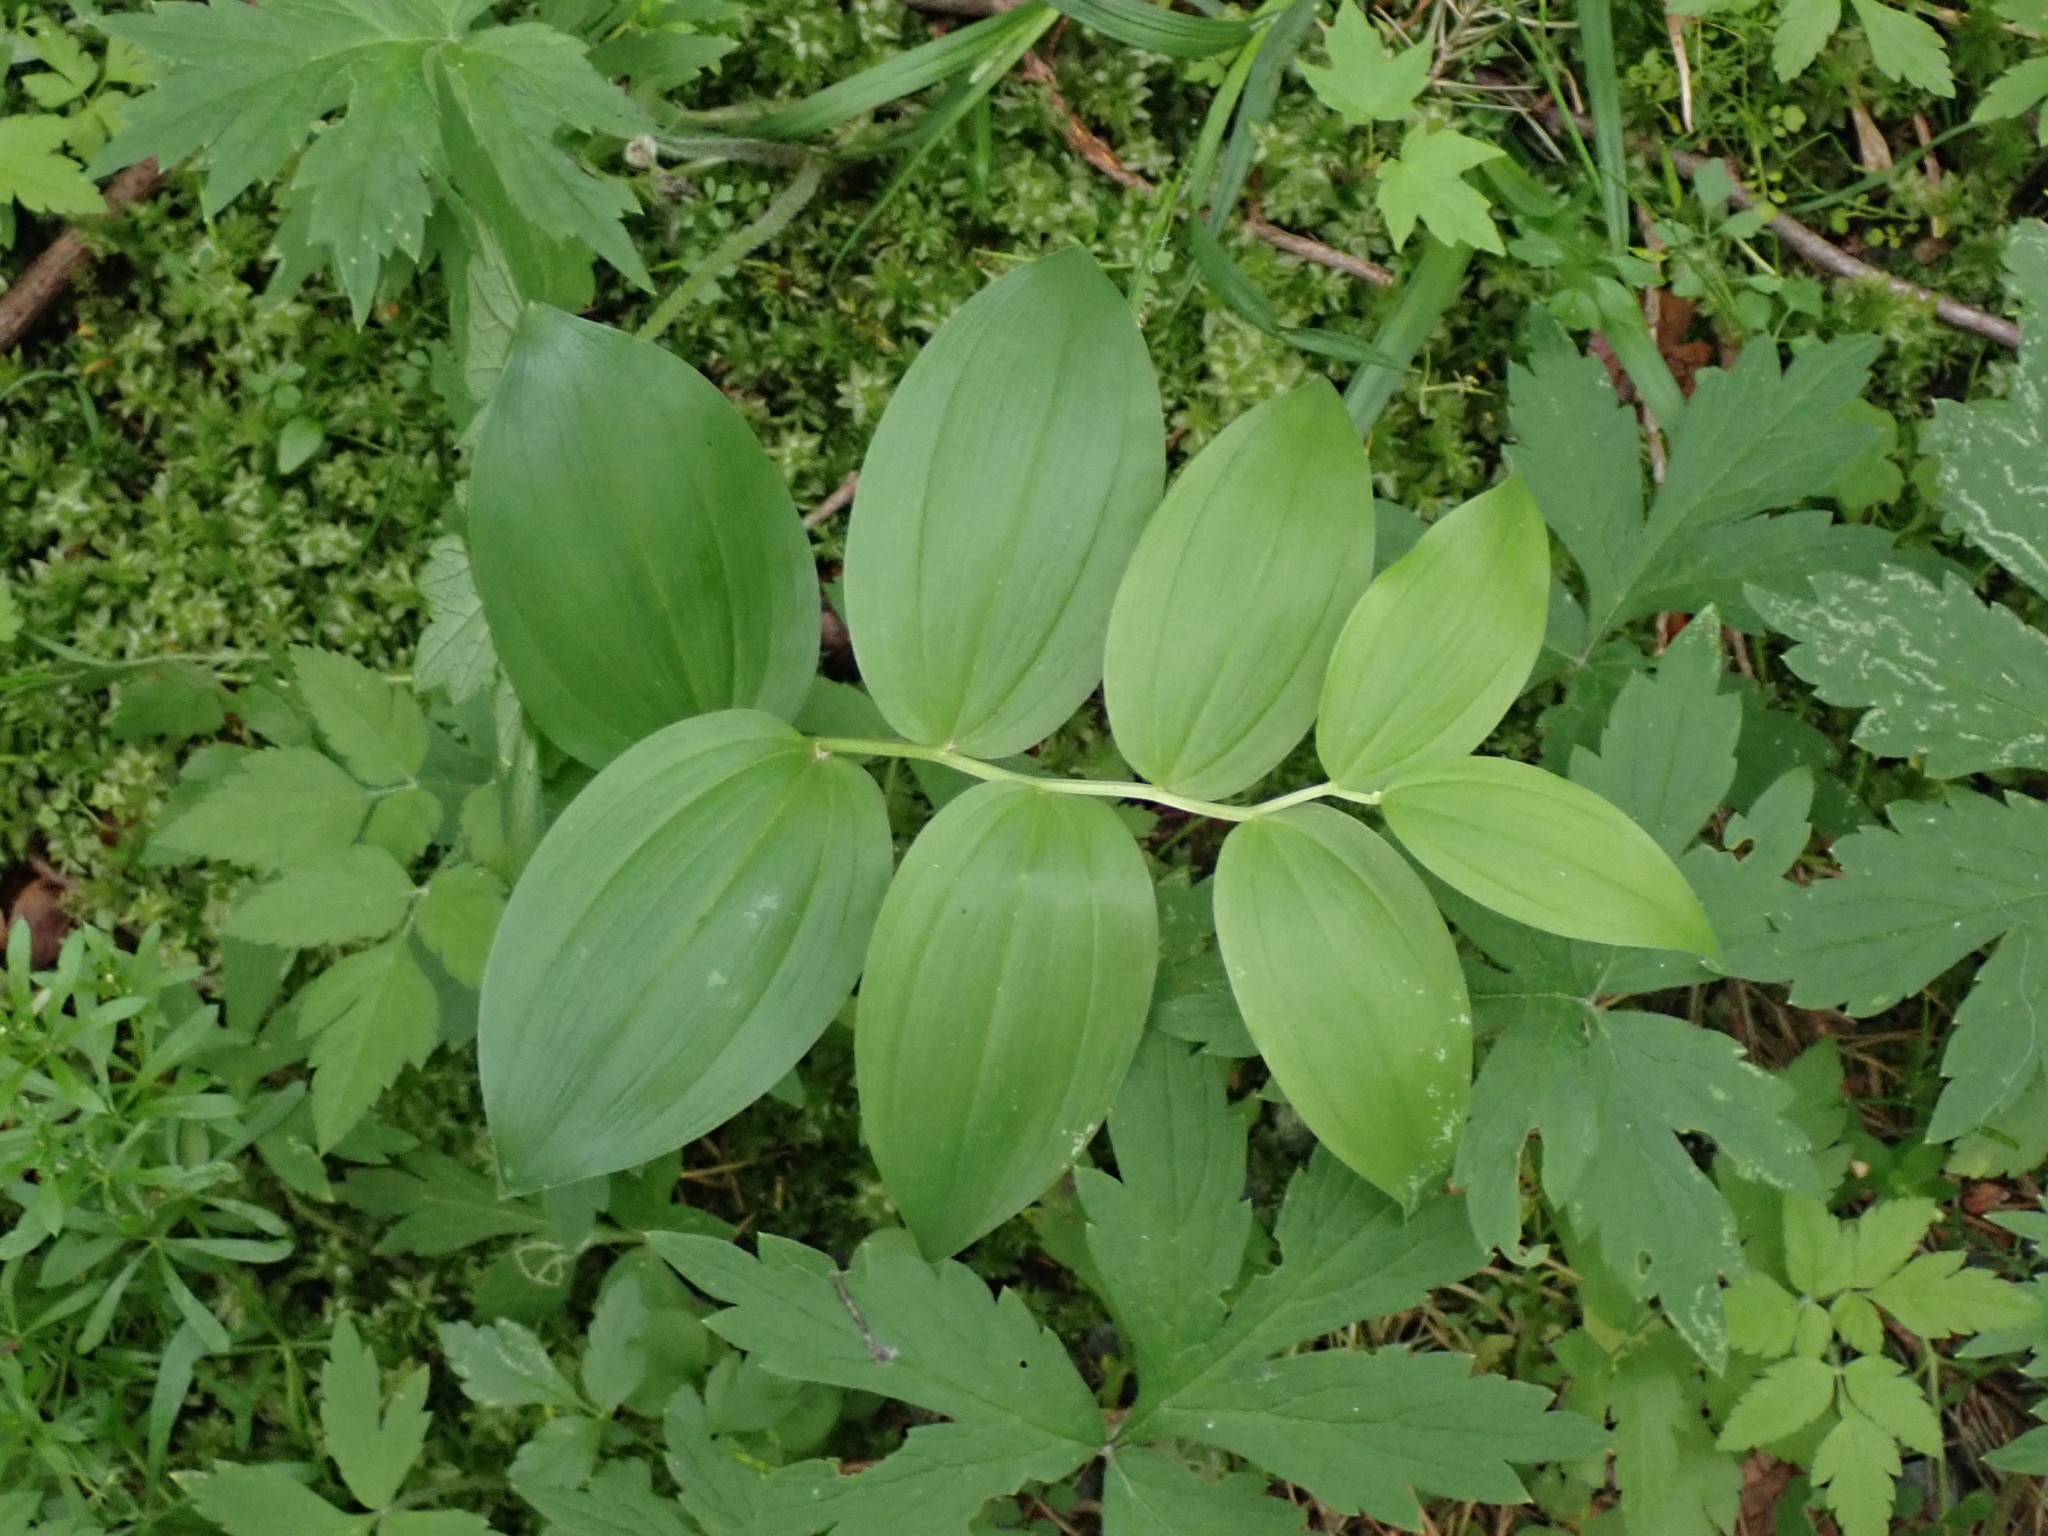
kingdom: Plantae
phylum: Tracheophyta
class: Liliopsida
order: Asparagales
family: Asparagaceae
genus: Maianthemum
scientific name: Maianthemum racemosum
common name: False spikenard
